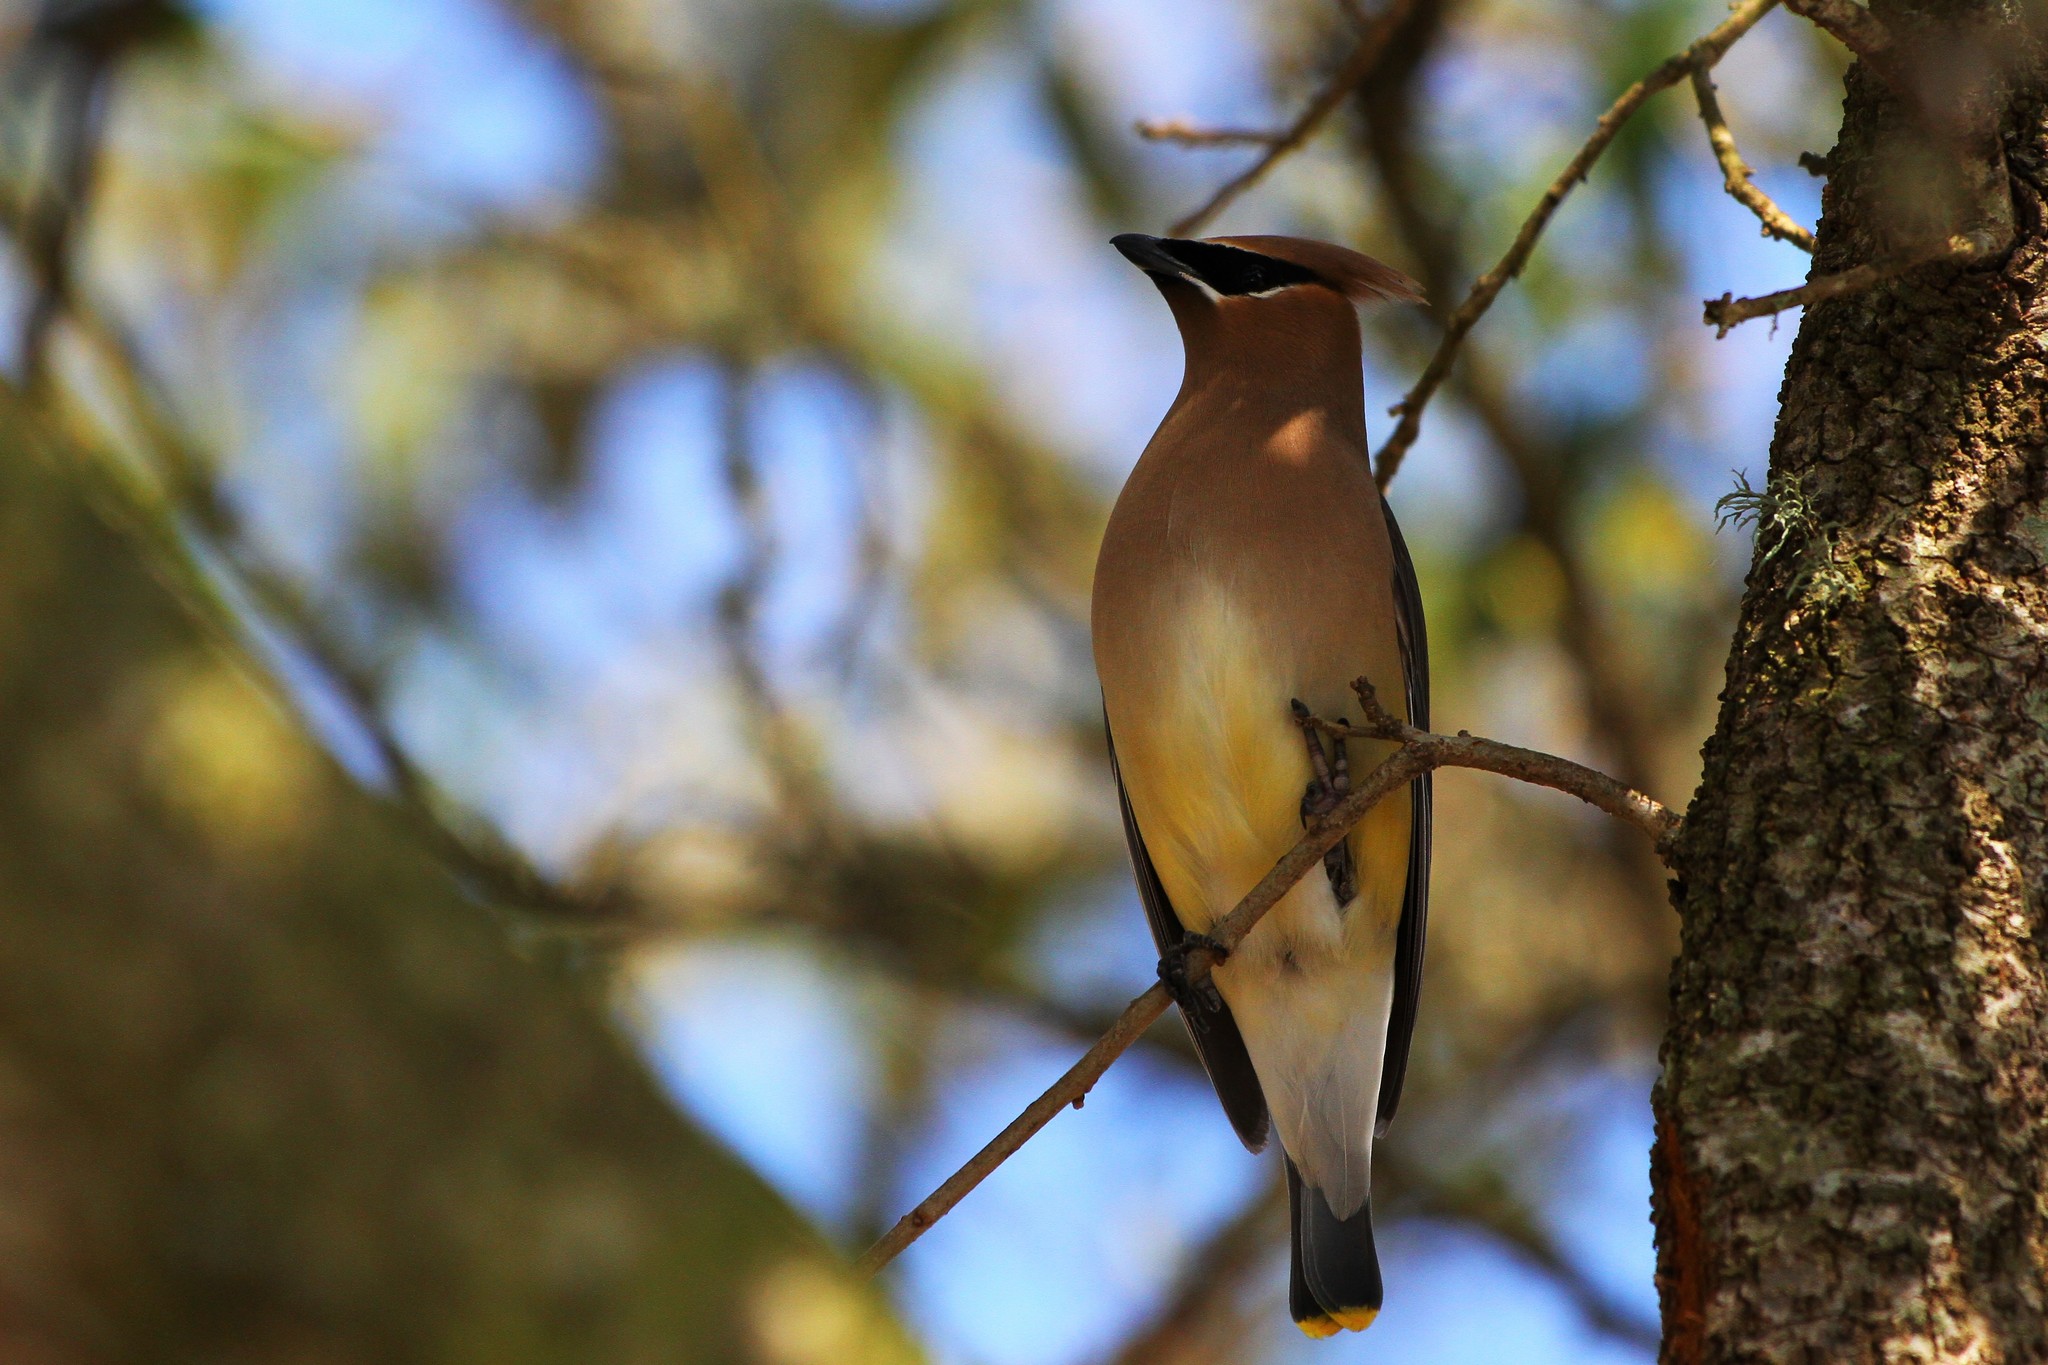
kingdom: Animalia
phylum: Chordata
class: Aves
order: Passeriformes
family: Bombycillidae
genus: Bombycilla
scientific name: Bombycilla cedrorum
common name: Cedar waxwing
